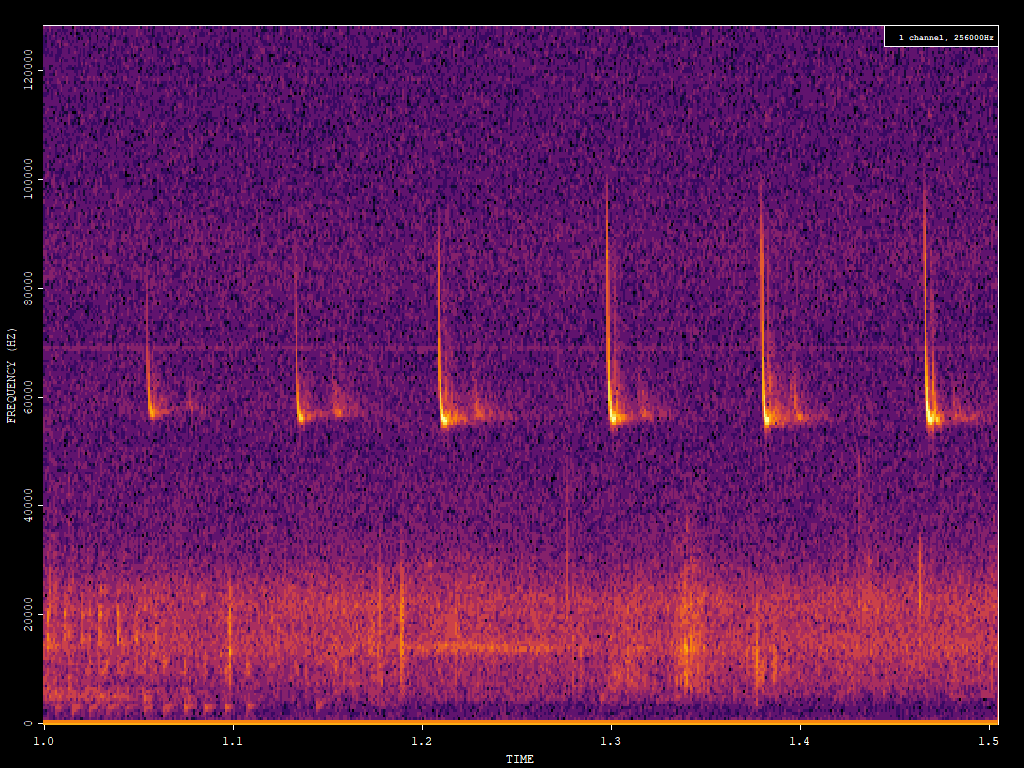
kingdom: Animalia
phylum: Chordata
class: Mammalia
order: Chiroptera
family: Vespertilionidae
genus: Pipistrellus
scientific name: Pipistrellus pygmaeus
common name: Soprano pipistrelle
